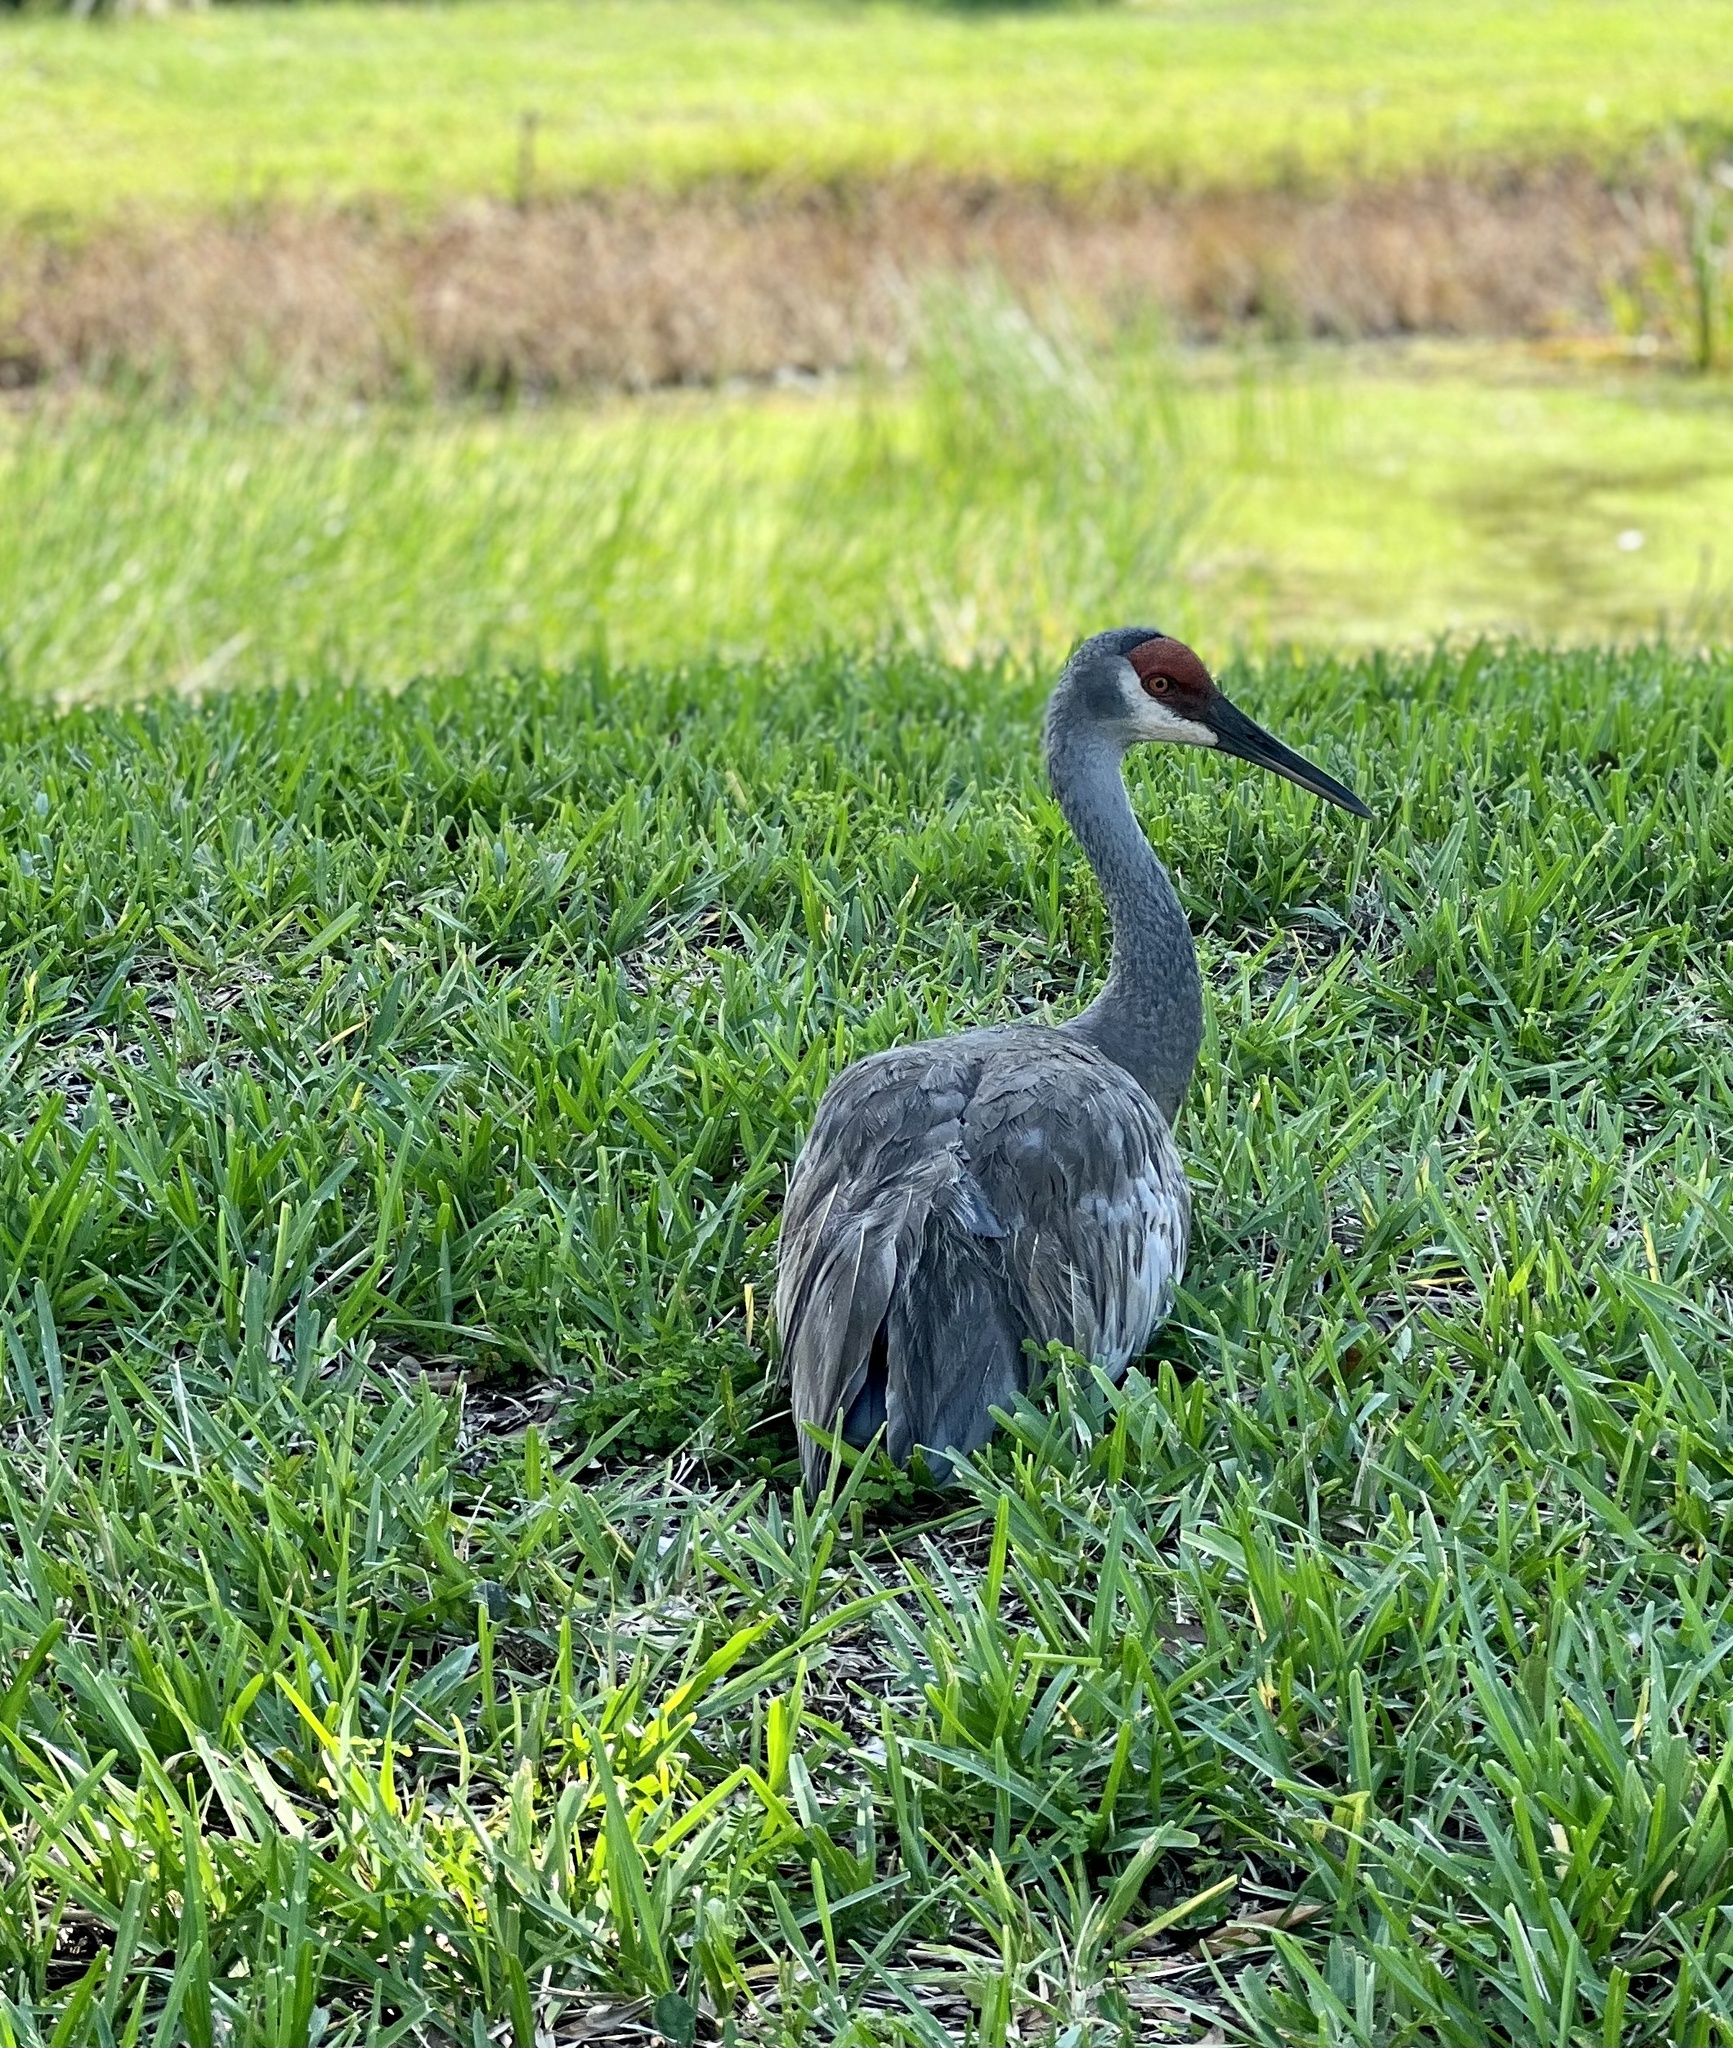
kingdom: Animalia
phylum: Chordata
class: Aves
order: Gruiformes
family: Gruidae
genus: Grus
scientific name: Grus canadensis
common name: Sandhill crane
